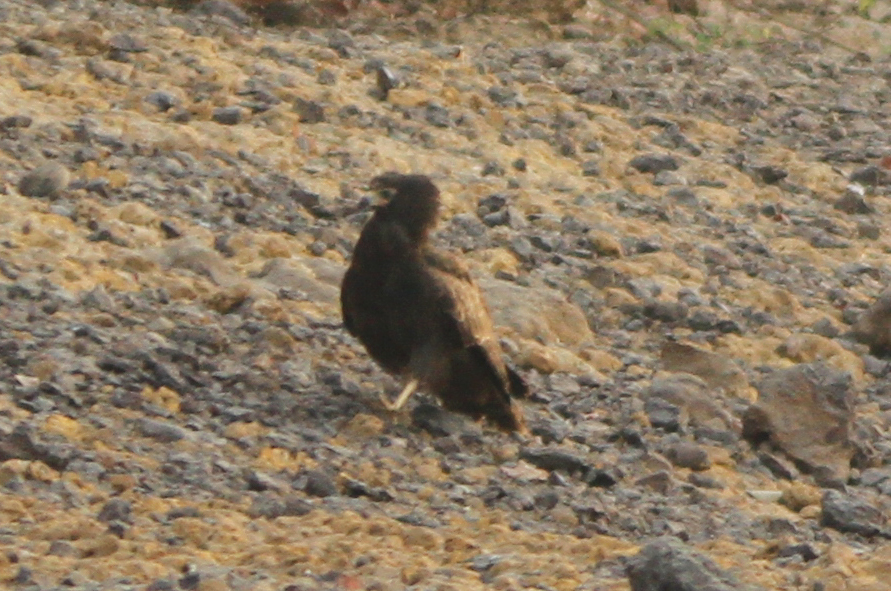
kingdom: Animalia
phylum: Chordata
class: Aves
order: Accipitriformes
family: Accipitridae
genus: Polyboroides
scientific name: Polyboroides typus
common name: African harrier-hawk
